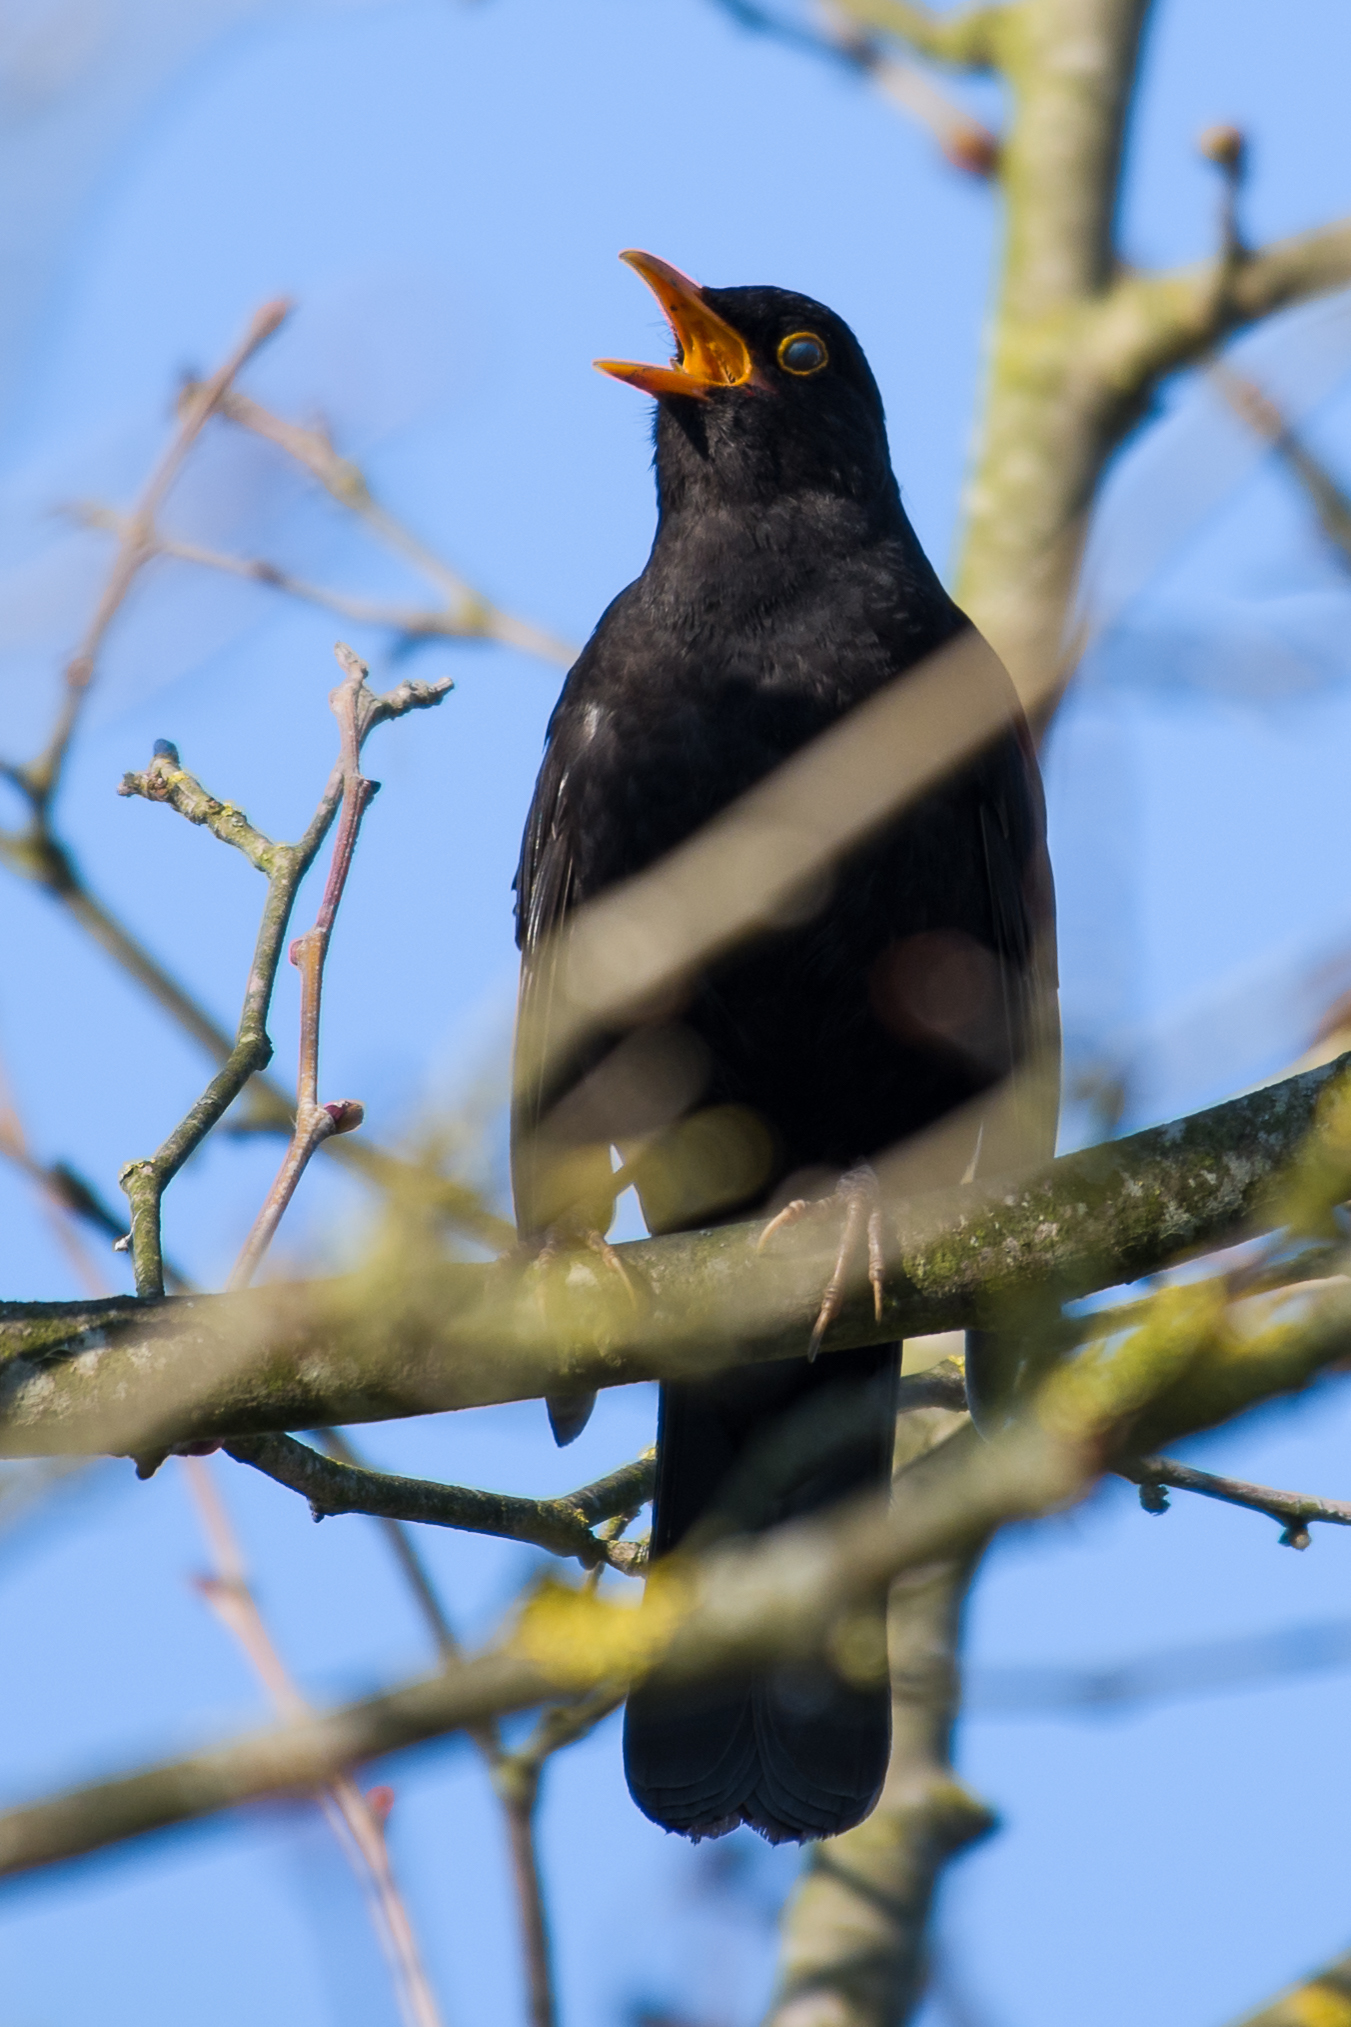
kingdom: Animalia
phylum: Chordata
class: Aves
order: Passeriformes
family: Turdidae
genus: Turdus
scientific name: Turdus merula
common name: Common blackbird
